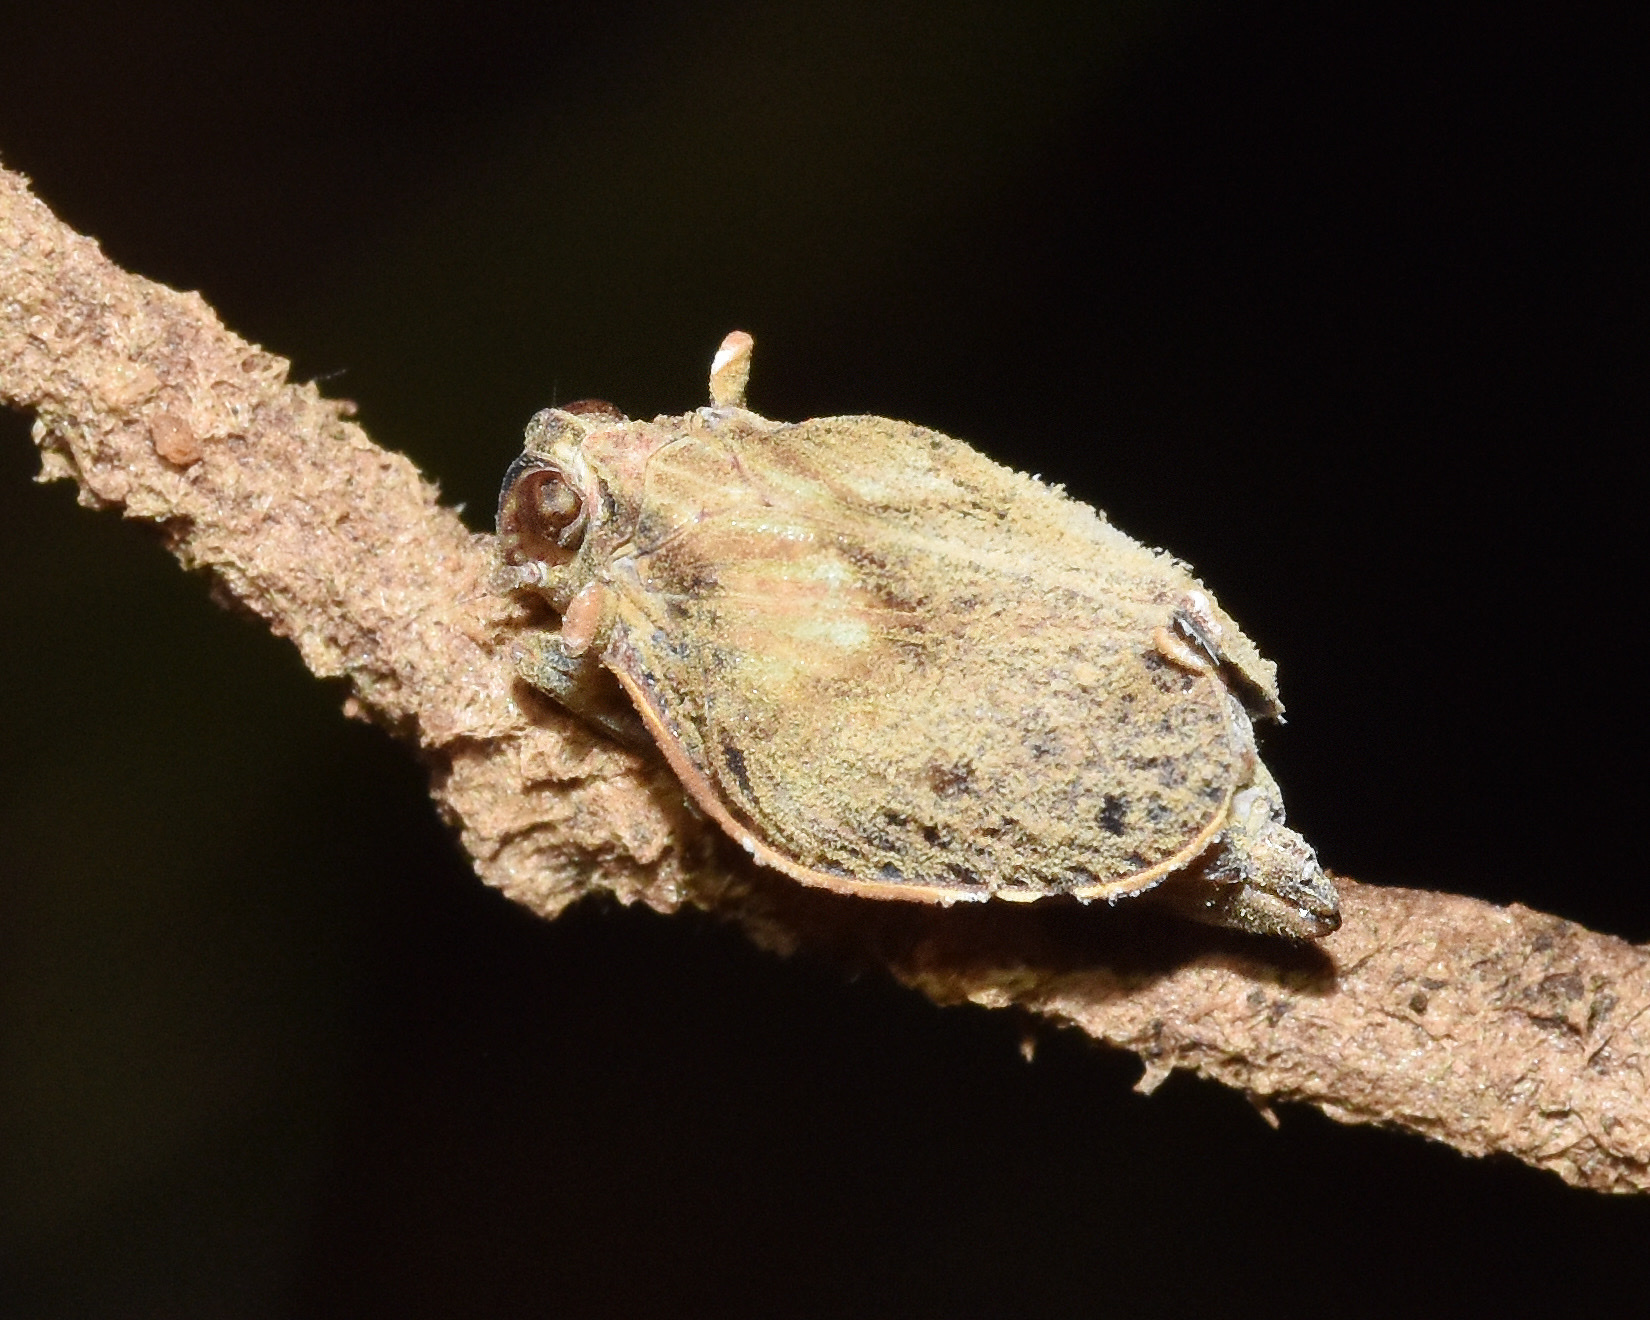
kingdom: Animalia
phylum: Arthropoda
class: Insecta
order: Hemiptera
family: Tropiduchidae
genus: Trienopa
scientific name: Trienopa longifrons
